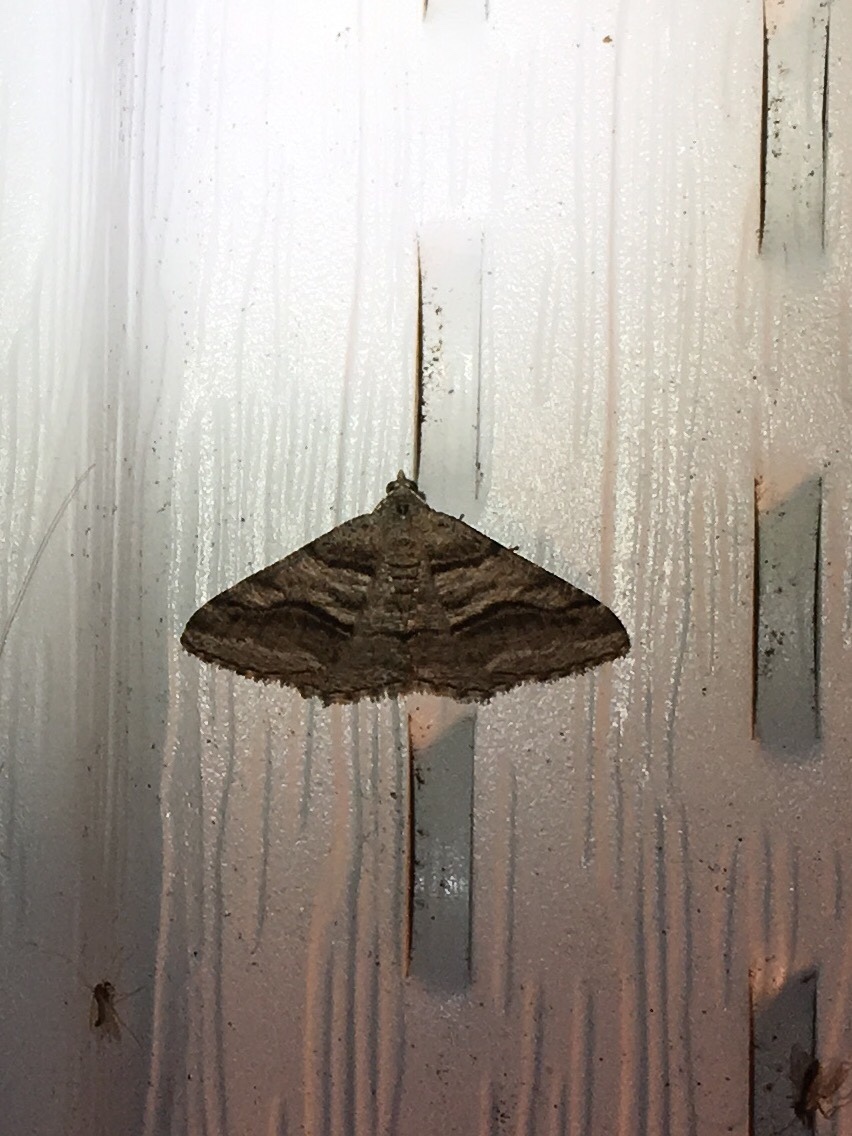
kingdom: Animalia
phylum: Arthropoda
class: Insecta
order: Lepidoptera
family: Geometridae
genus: Digrammia
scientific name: Digrammia continuata
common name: Curve-lined angle
